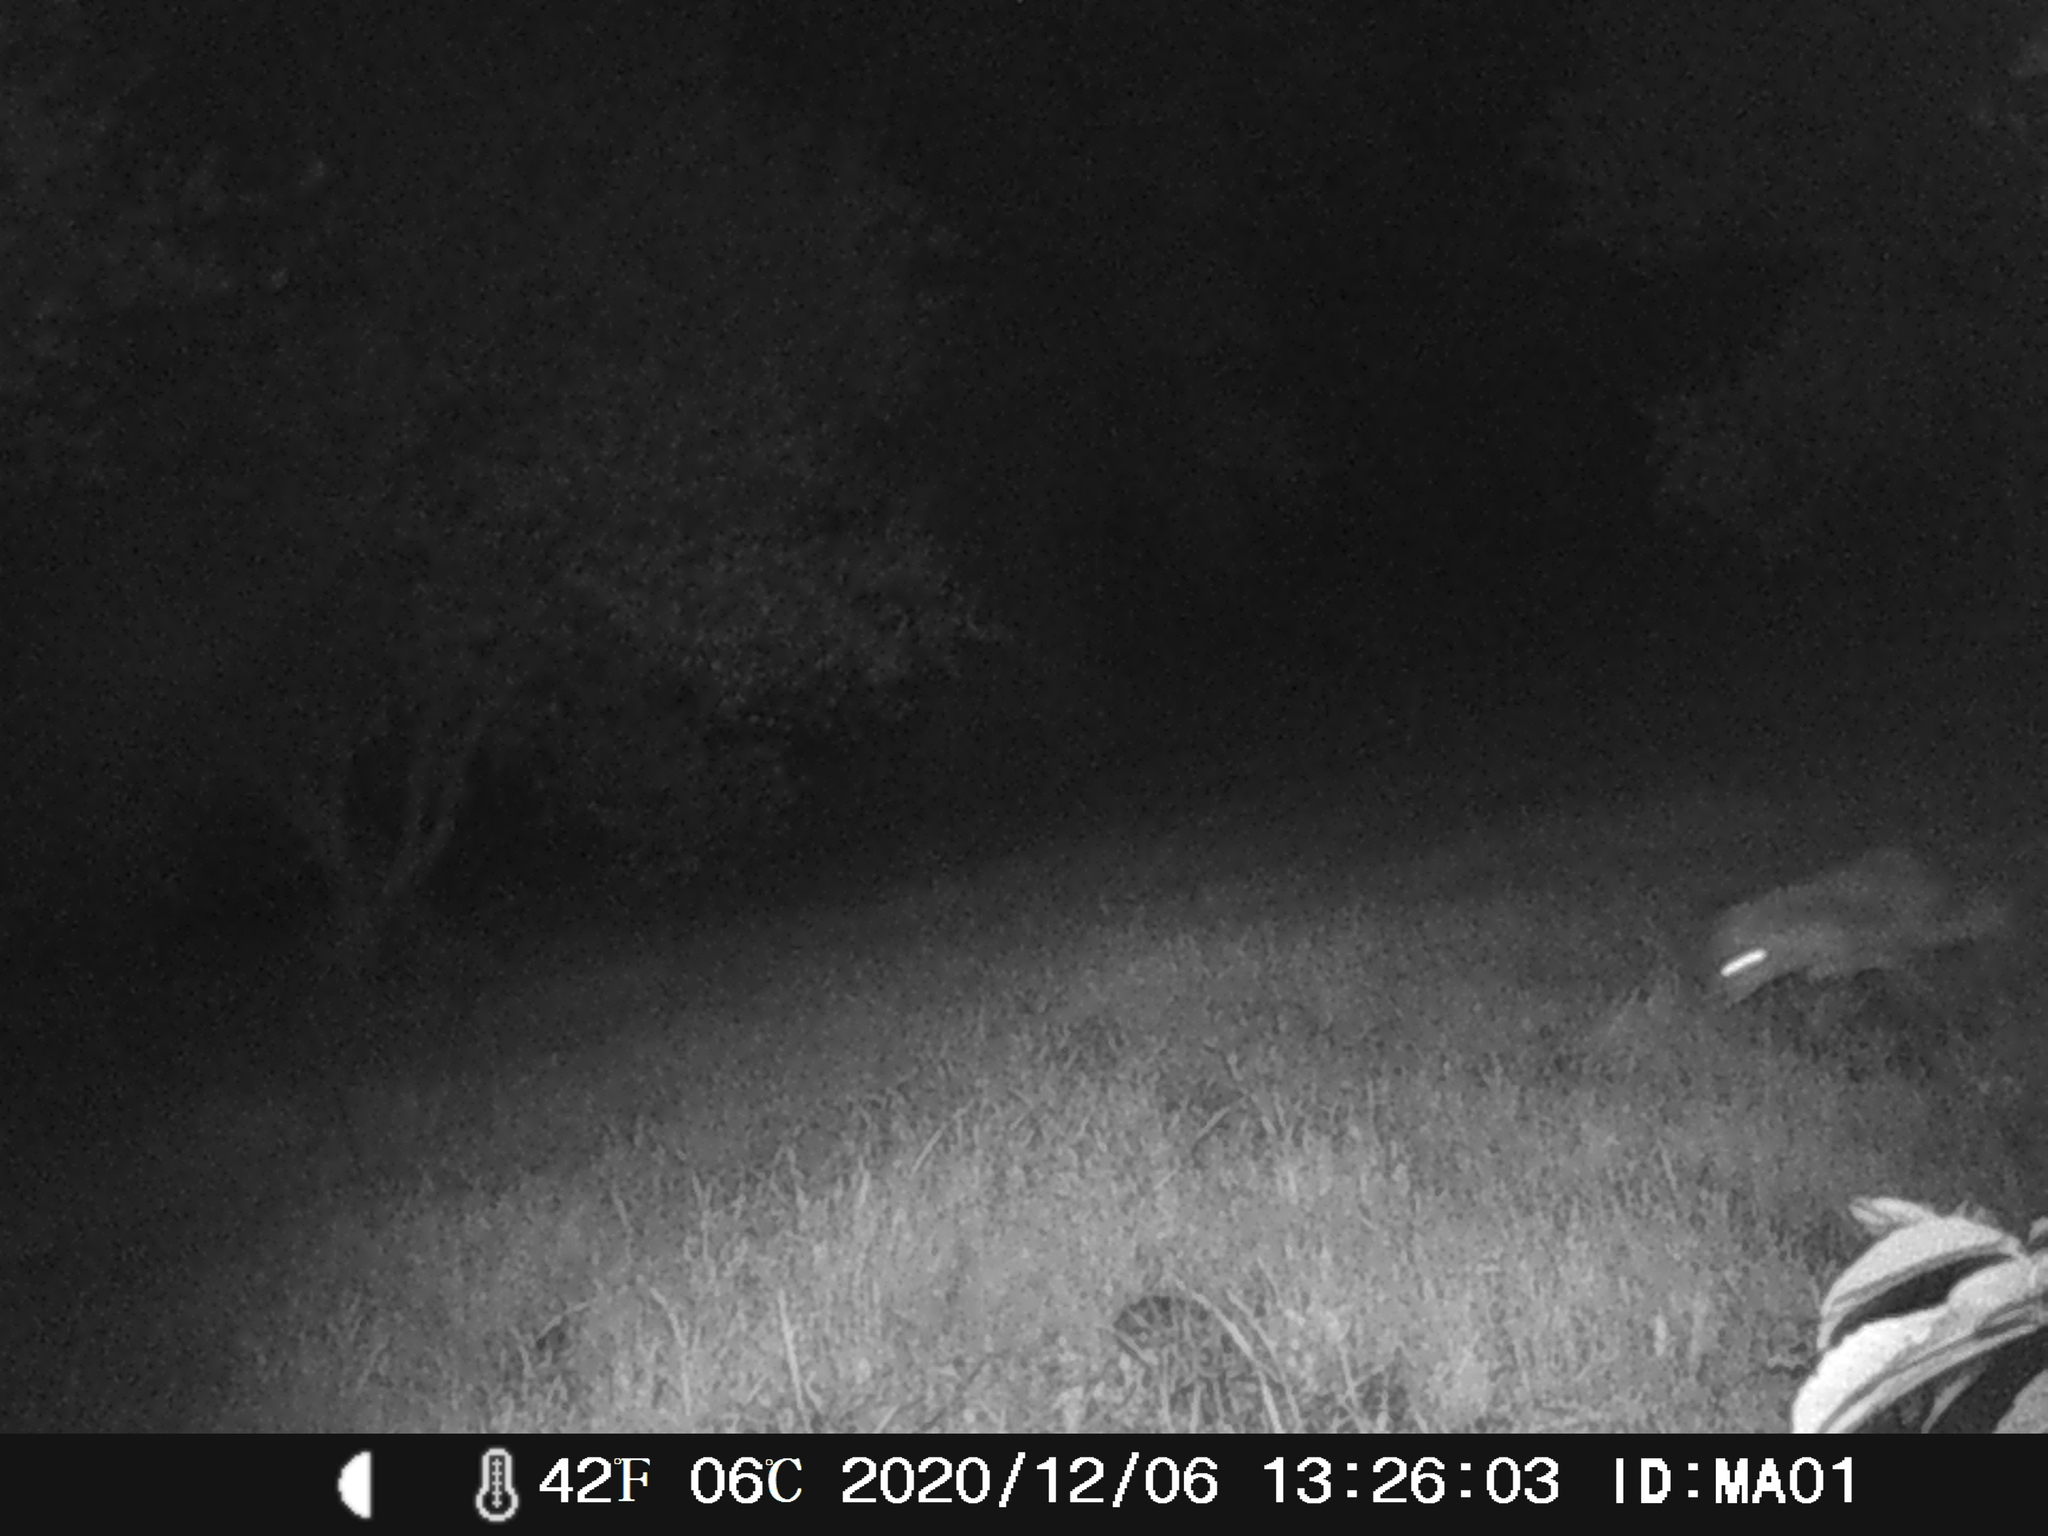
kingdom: Animalia
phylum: Chordata
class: Mammalia
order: Carnivora
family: Canidae
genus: Vulpes
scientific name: Vulpes vulpes
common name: Red fox
